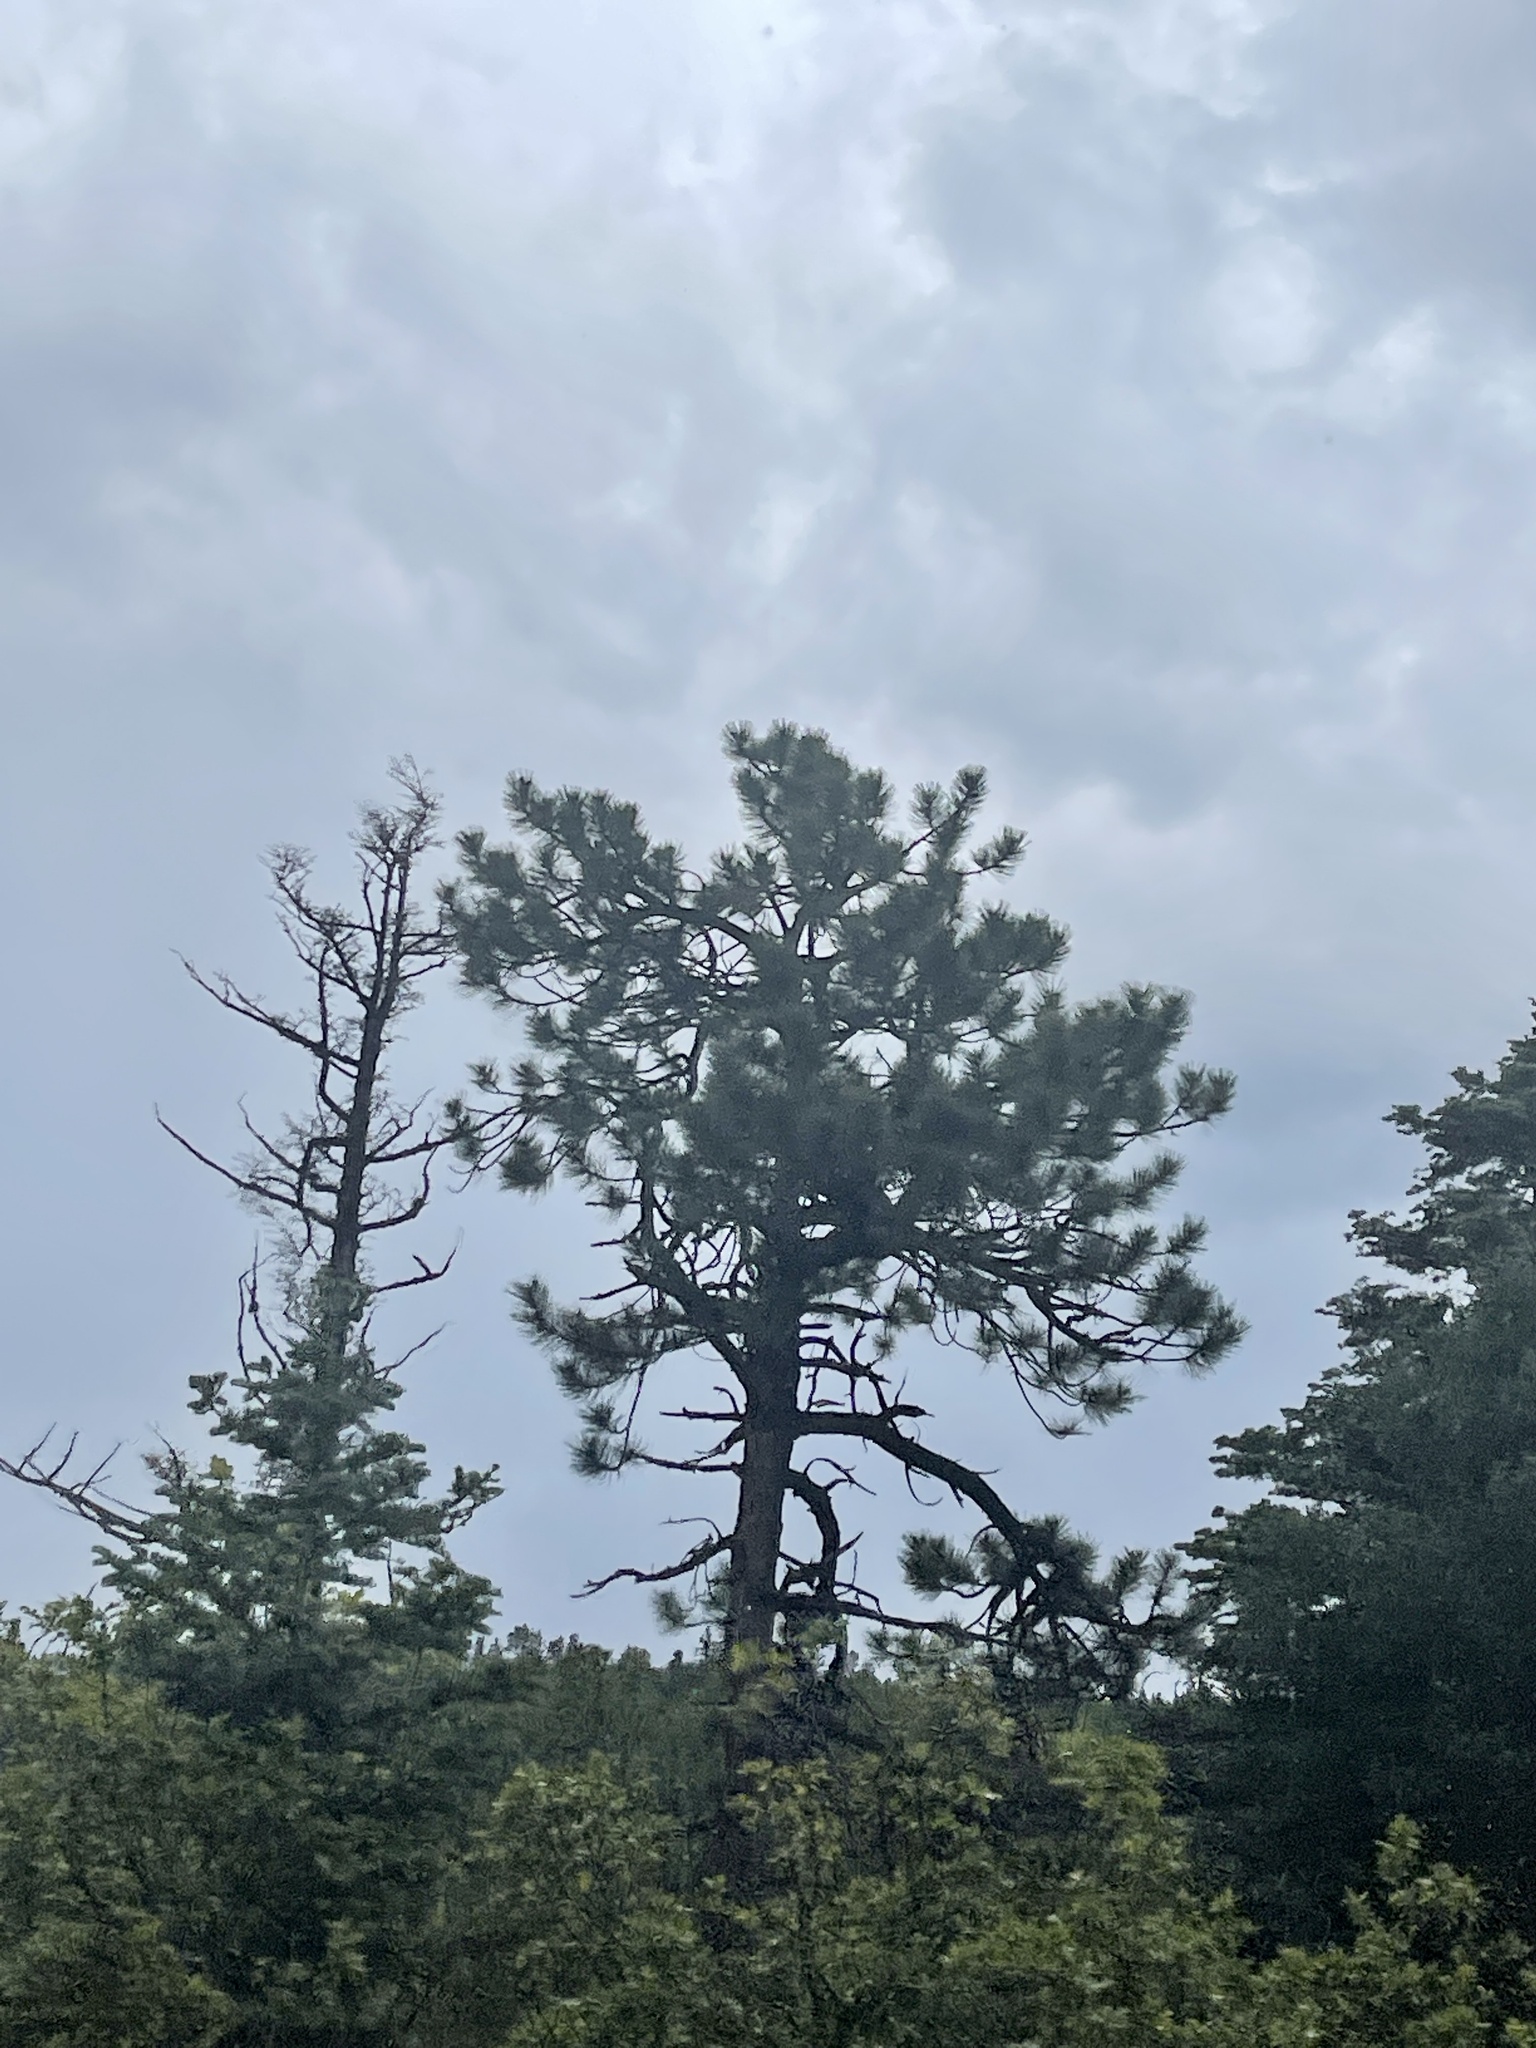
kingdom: Plantae
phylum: Tracheophyta
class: Pinopsida
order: Pinales
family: Pinaceae
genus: Pinus
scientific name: Pinus ponderosa
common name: Western yellow-pine
